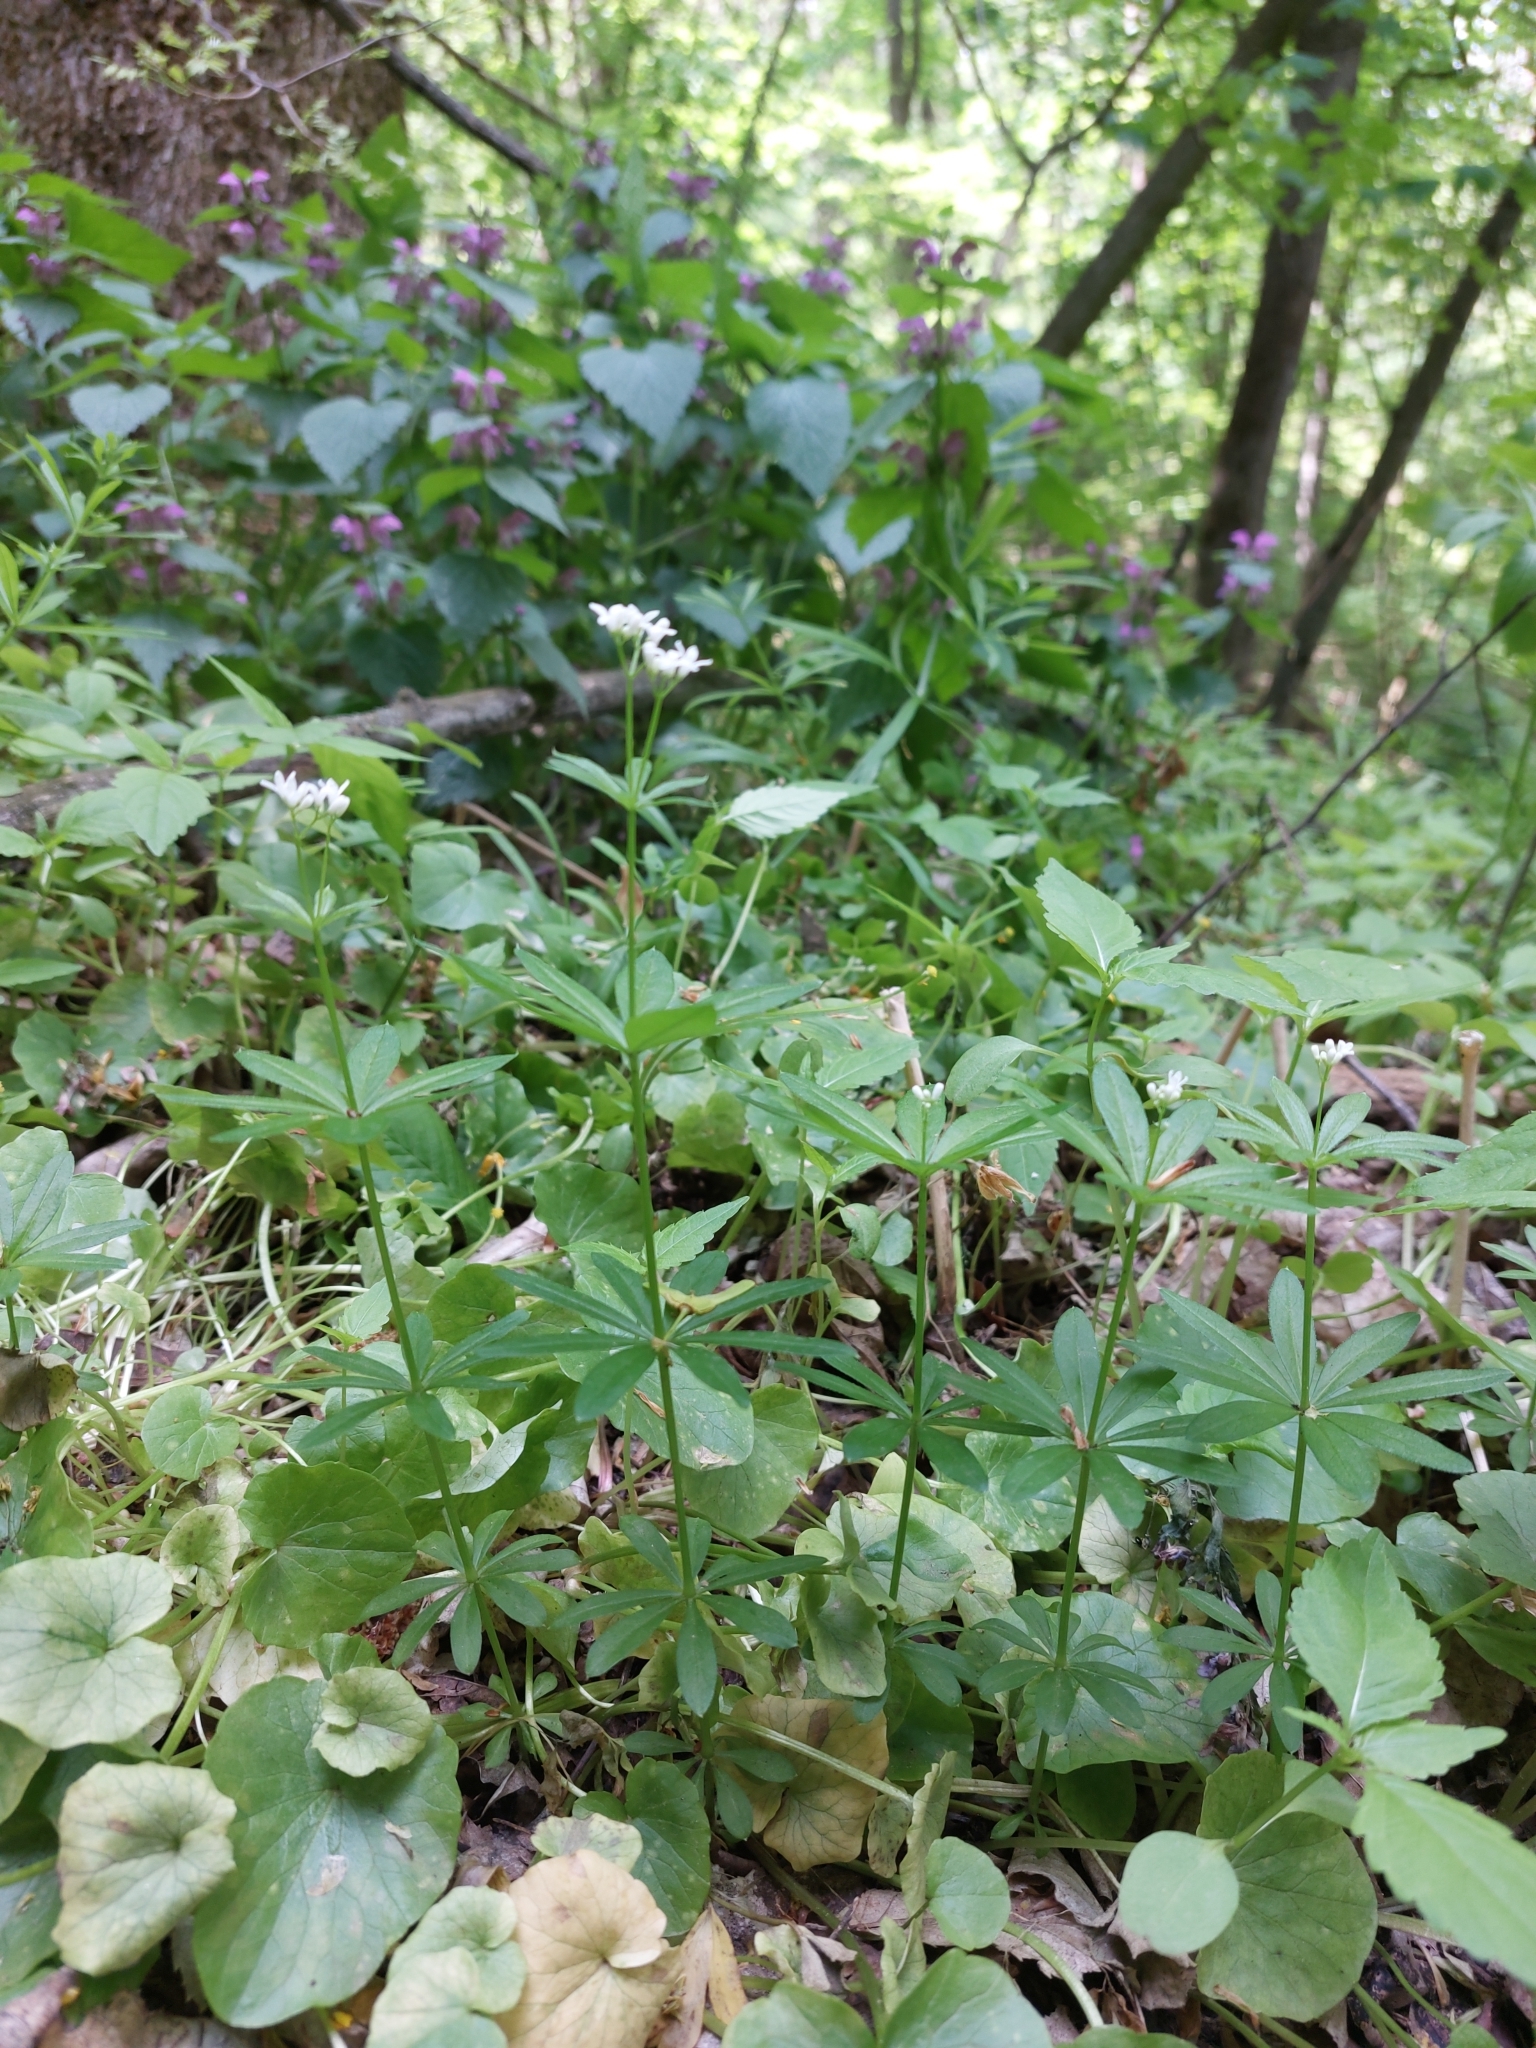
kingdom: Plantae
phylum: Tracheophyta
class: Magnoliopsida
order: Gentianales
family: Rubiaceae
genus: Galium
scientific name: Galium odoratum
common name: Sweet woodruff
